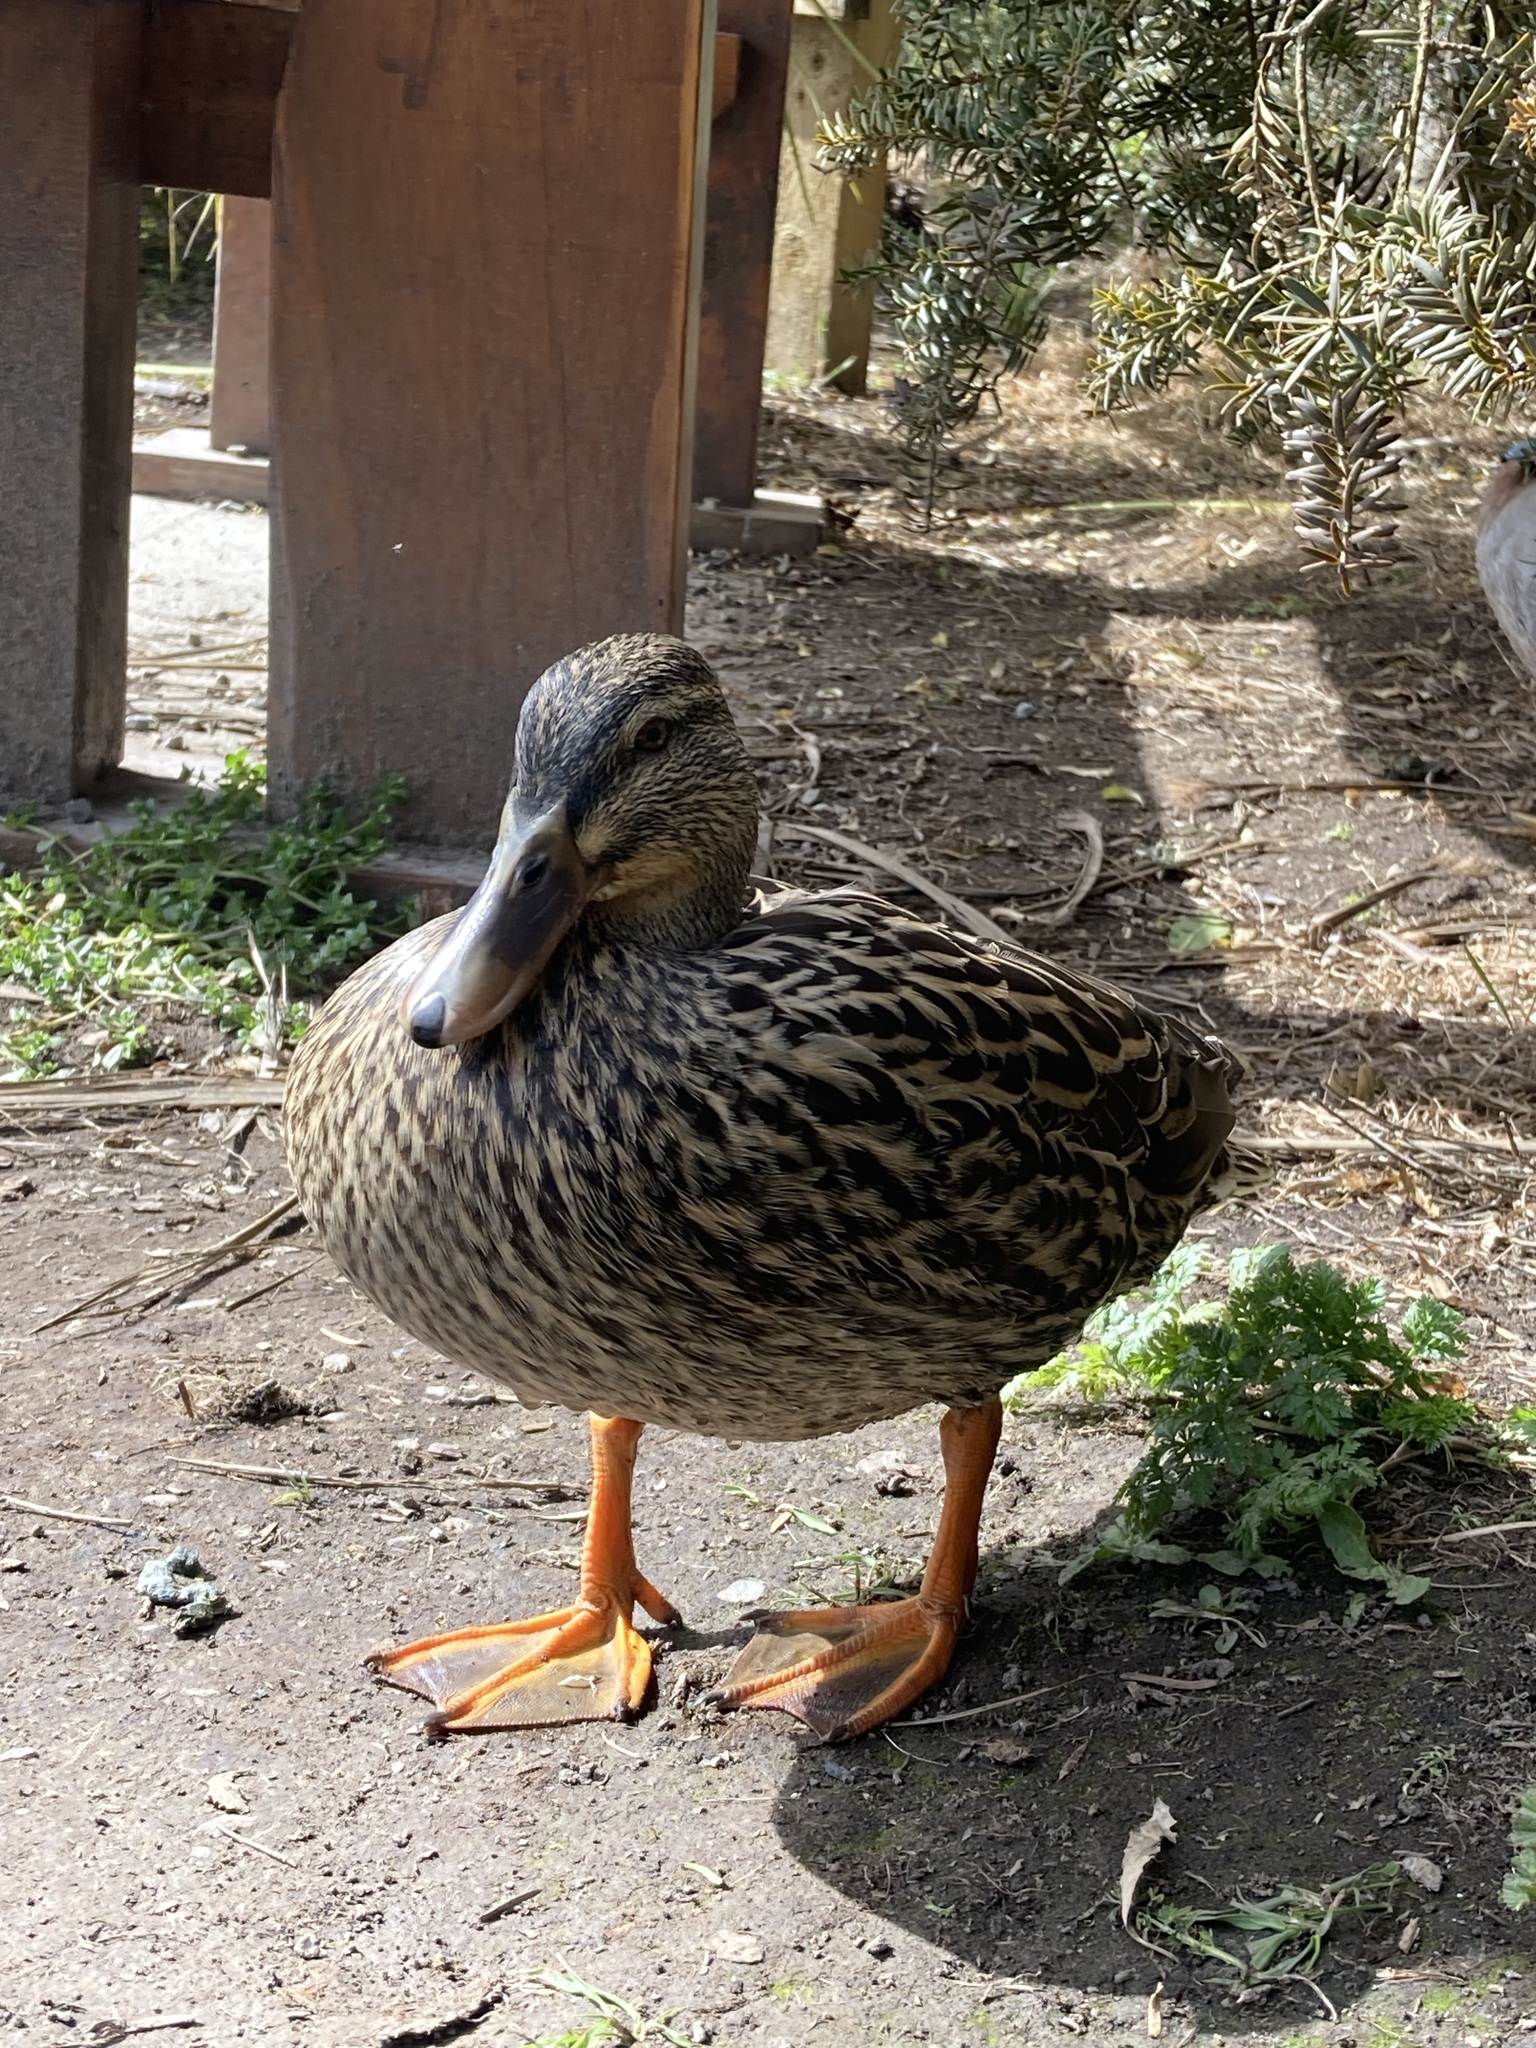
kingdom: Animalia
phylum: Chordata
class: Aves
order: Anseriformes
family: Anatidae
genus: Anas
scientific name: Anas
